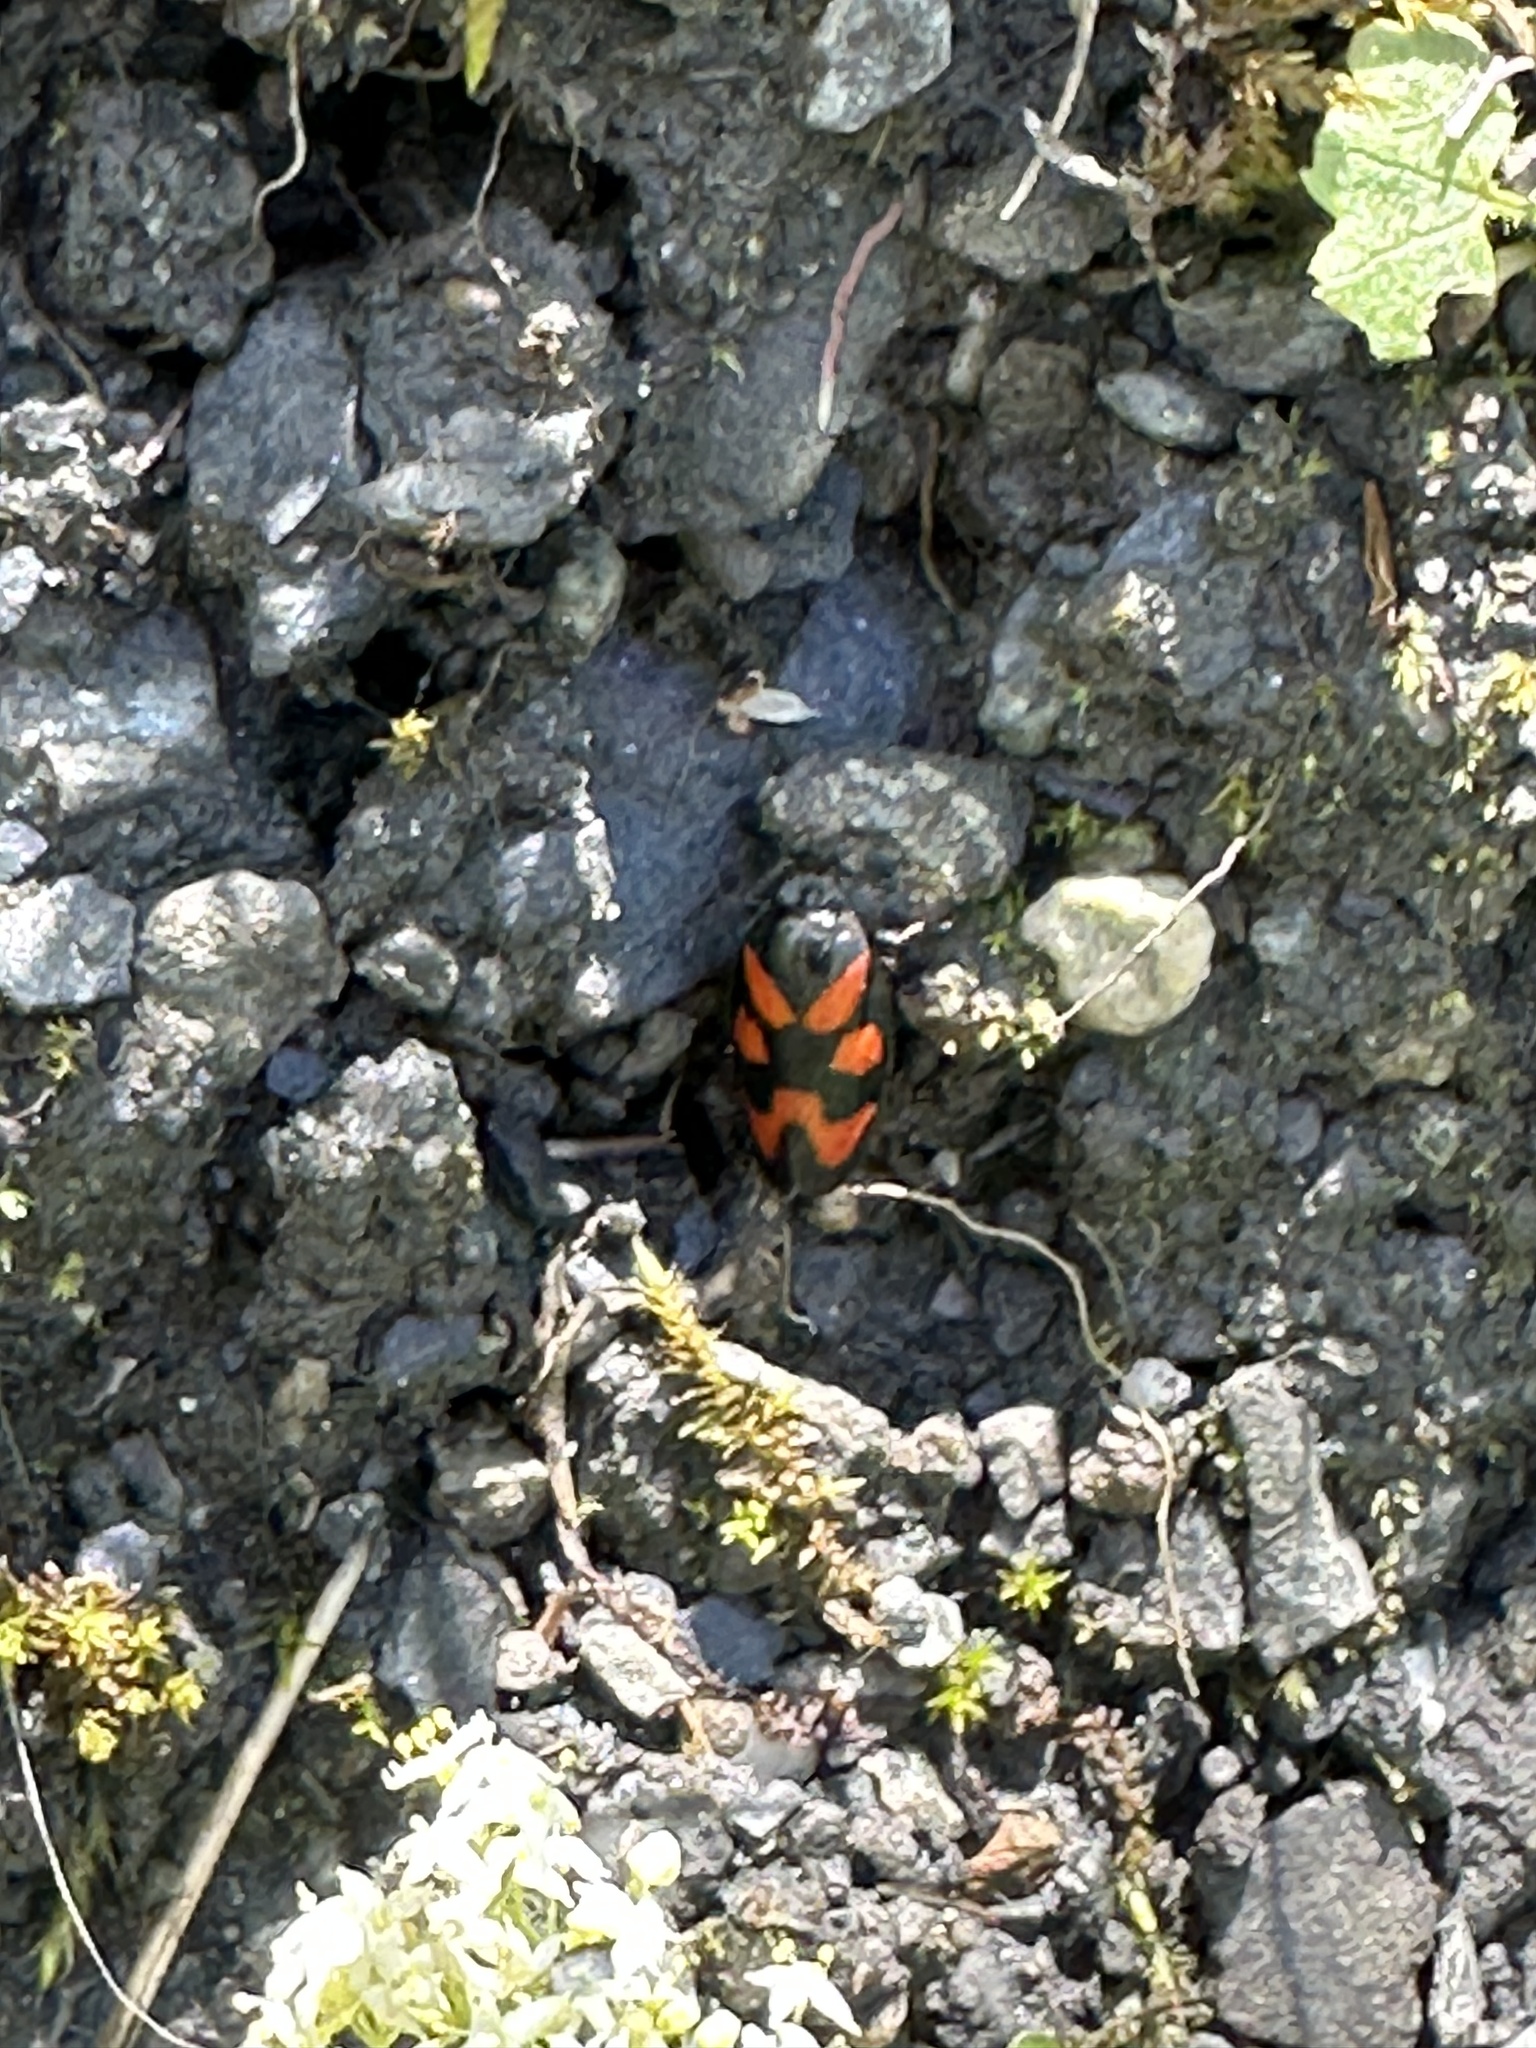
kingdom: Animalia
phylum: Arthropoda
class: Insecta
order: Hemiptera
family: Cercopidae
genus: Cercopis
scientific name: Cercopis vulnerata
